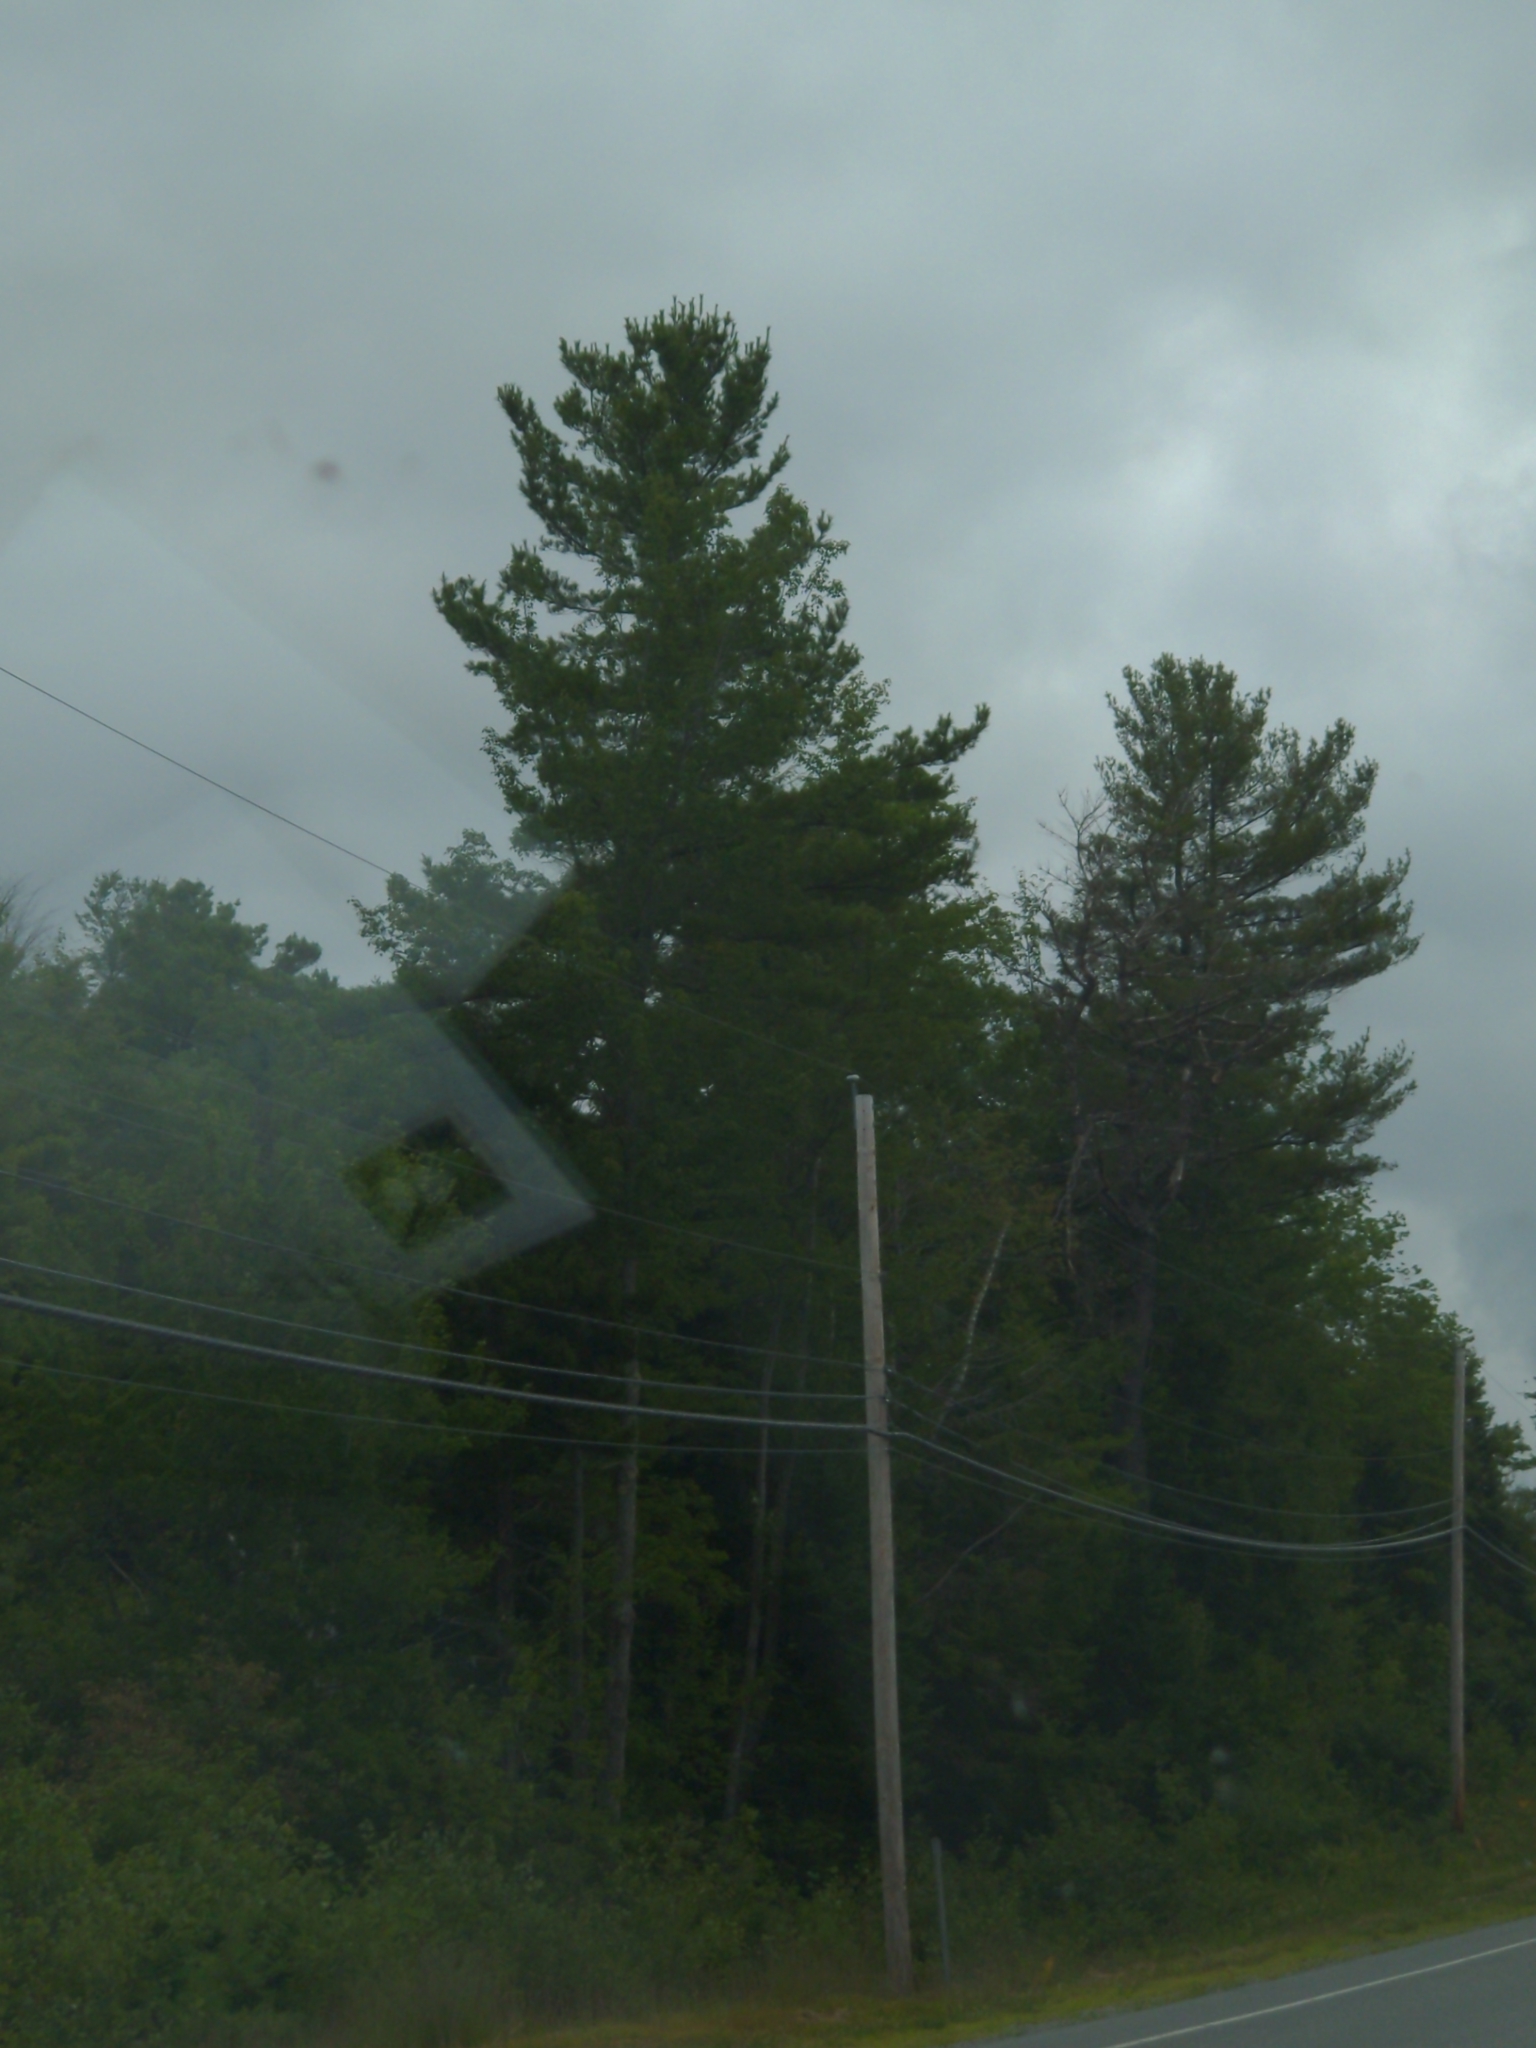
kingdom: Plantae
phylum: Tracheophyta
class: Pinopsida
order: Pinales
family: Pinaceae
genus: Pinus
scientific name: Pinus strobus
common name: Weymouth pine
